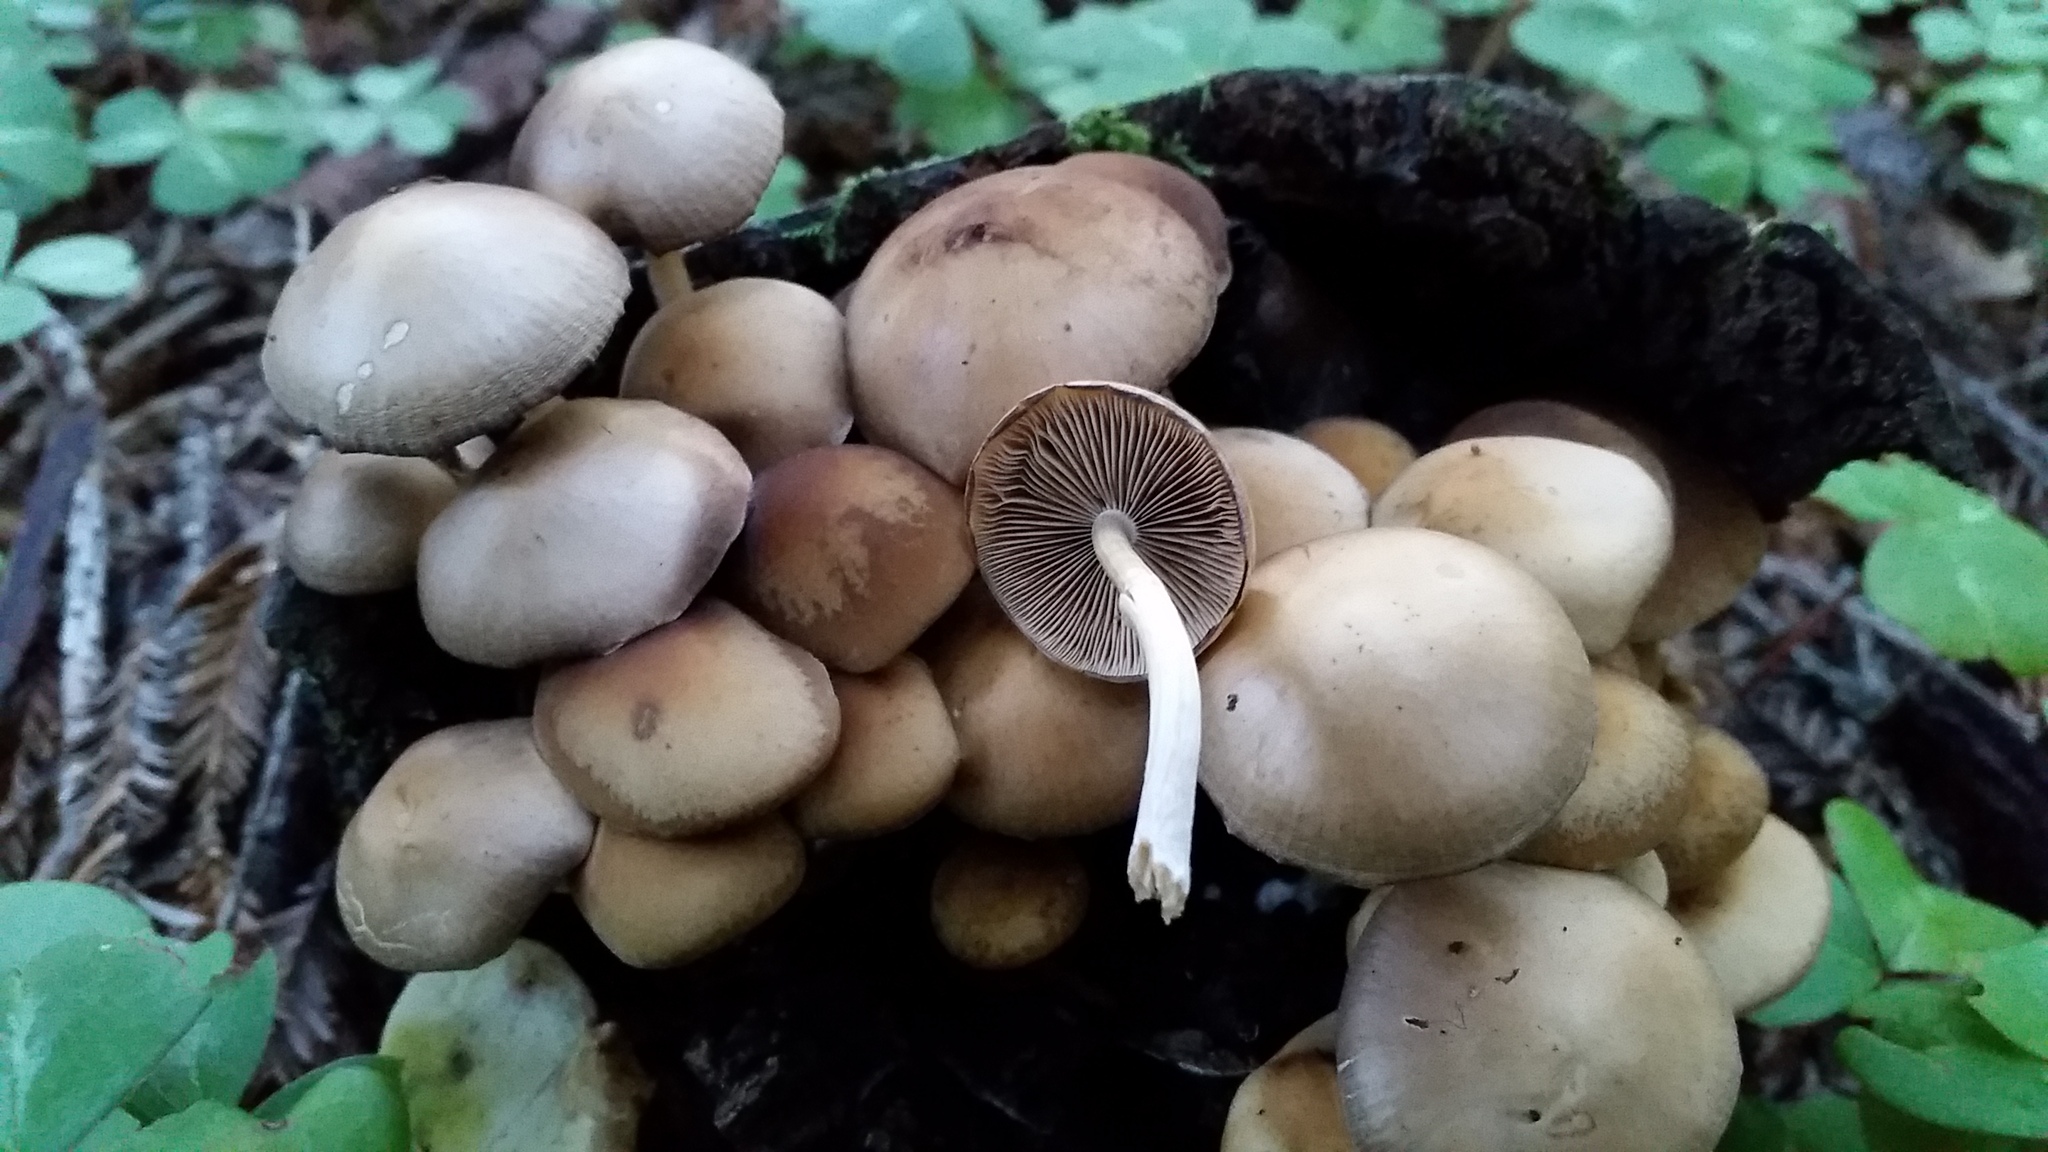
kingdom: Fungi
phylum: Basidiomycota
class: Agaricomycetes
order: Agaricales
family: Psathyrellaceae
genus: Psathyrella
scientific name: Psathyrella piluliformis
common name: Common stump brittlestem
